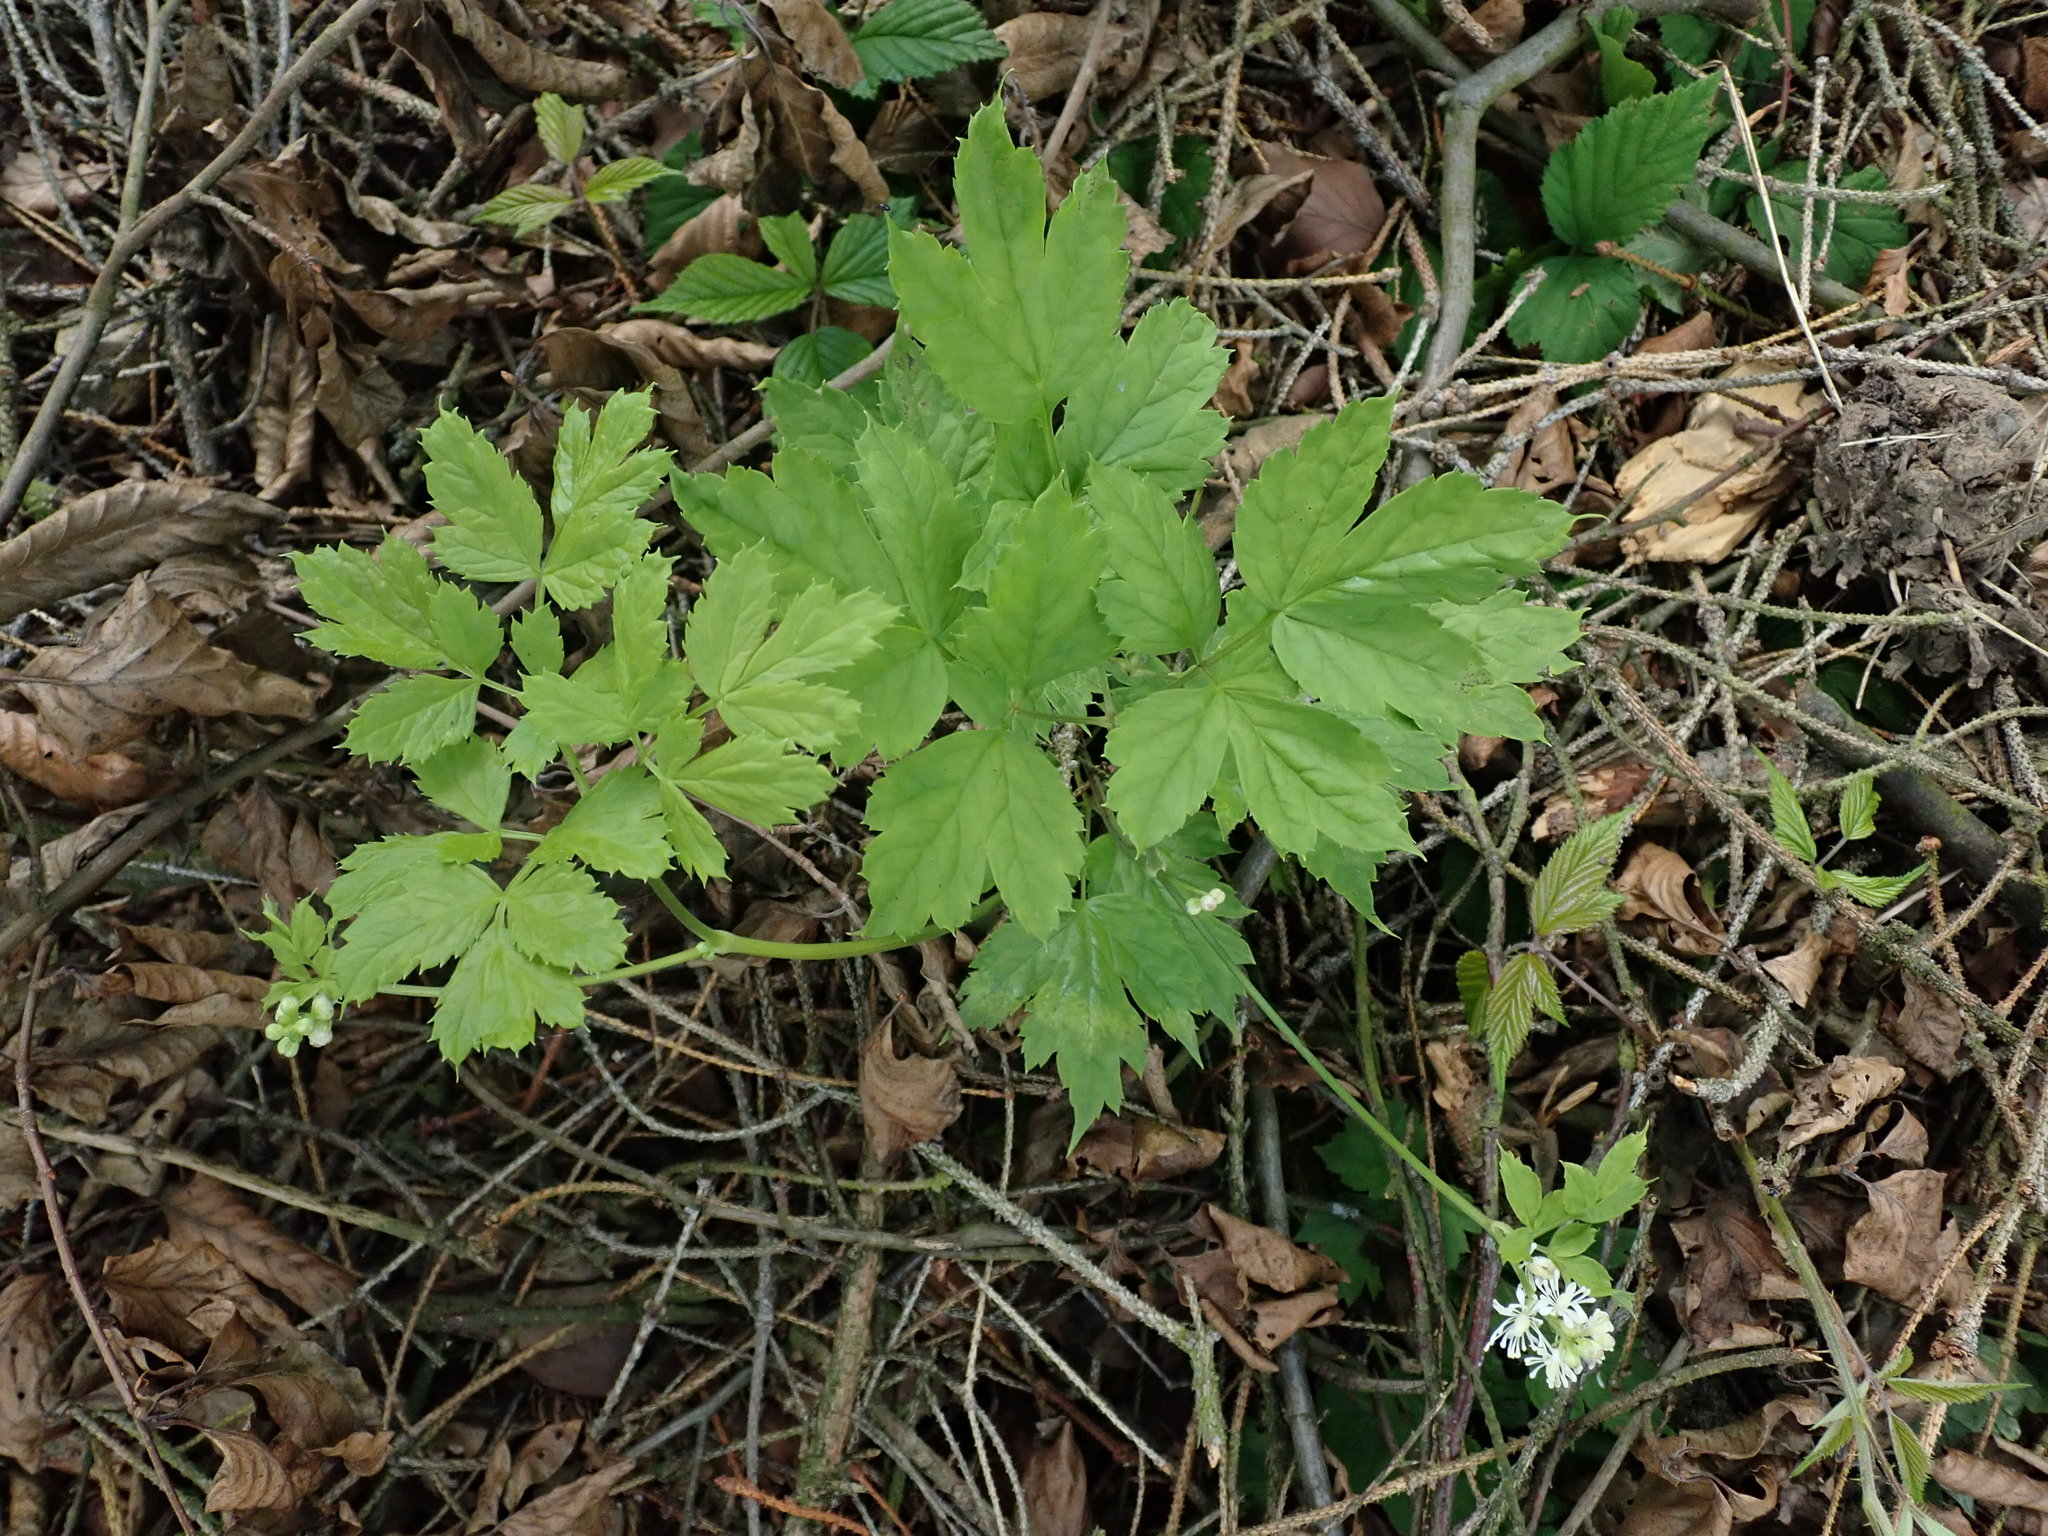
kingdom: Plantae
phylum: Tracheophyta
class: Magnoliopsida
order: Ranunculales
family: Ranunculaceae
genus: Actaea
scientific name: Actaea spicata
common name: Baneberry
